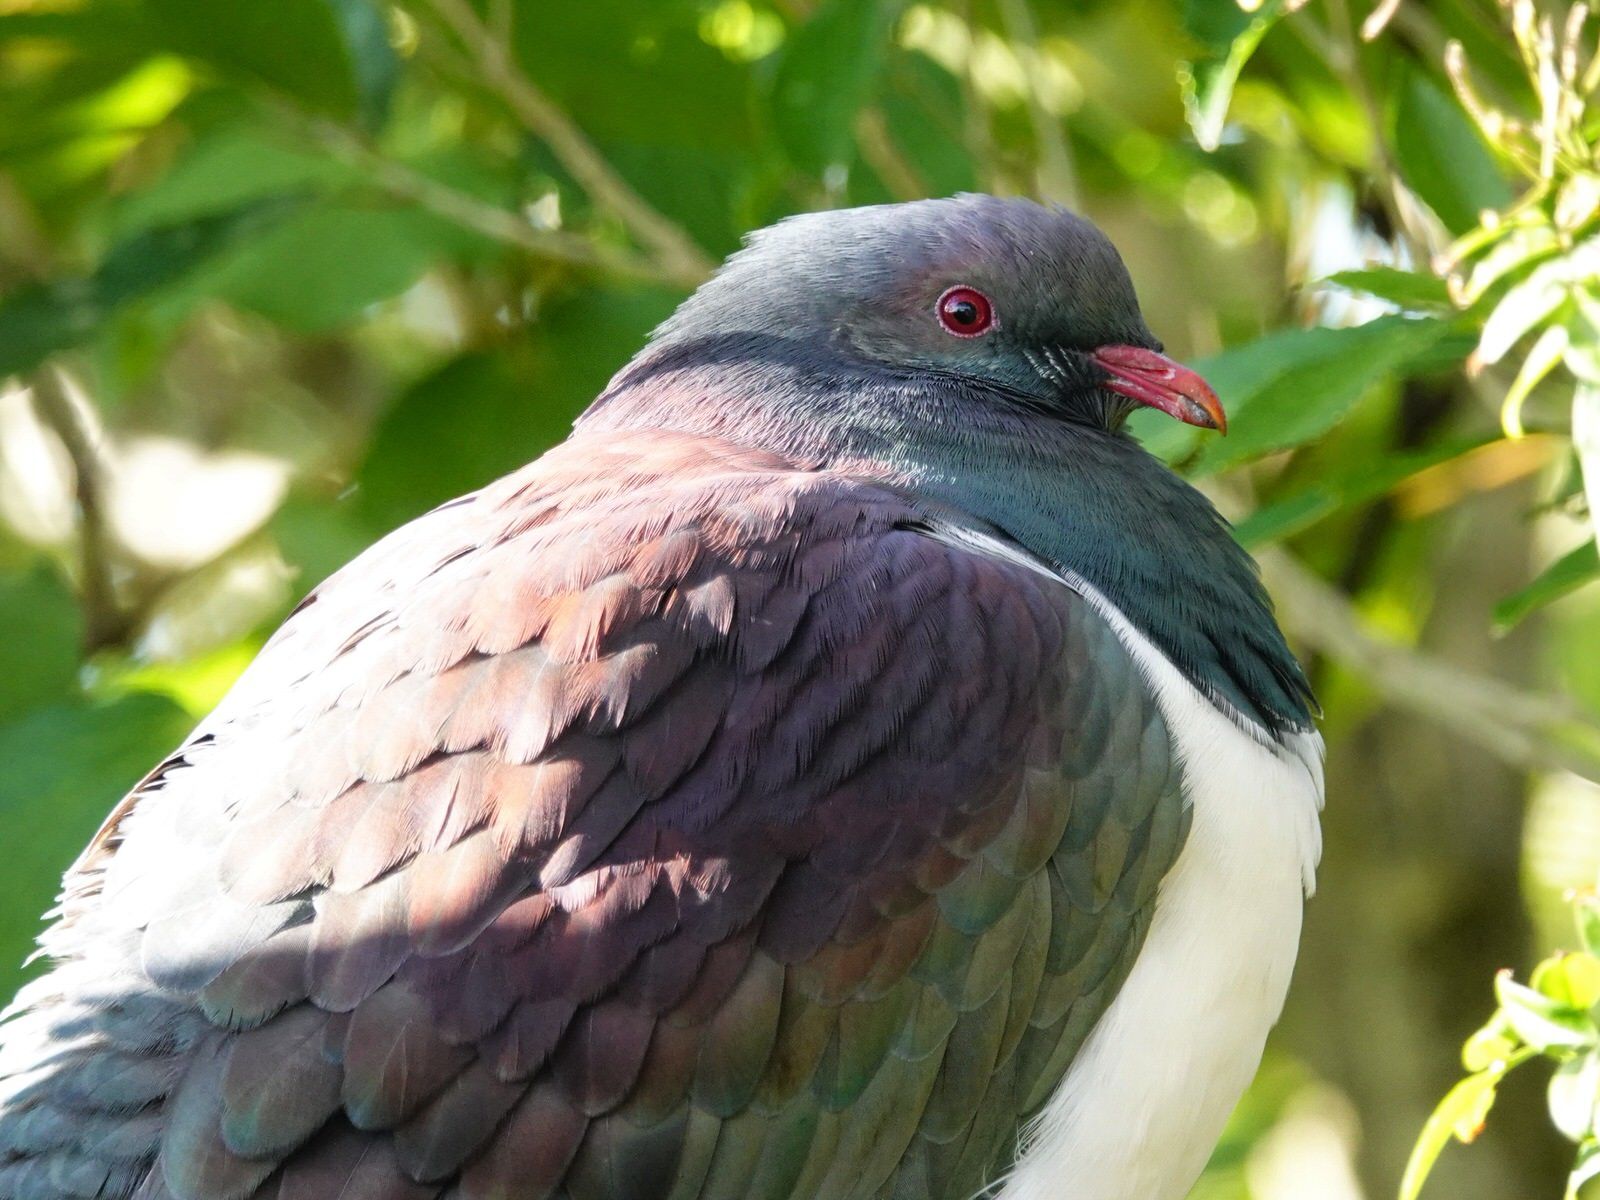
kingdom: Animalia
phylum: Chordata
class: Aves
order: Columbiformes
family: Columbidae
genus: Hemiphaga
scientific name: Hemiphaga novaeseelandiae
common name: New zealand pigeon
